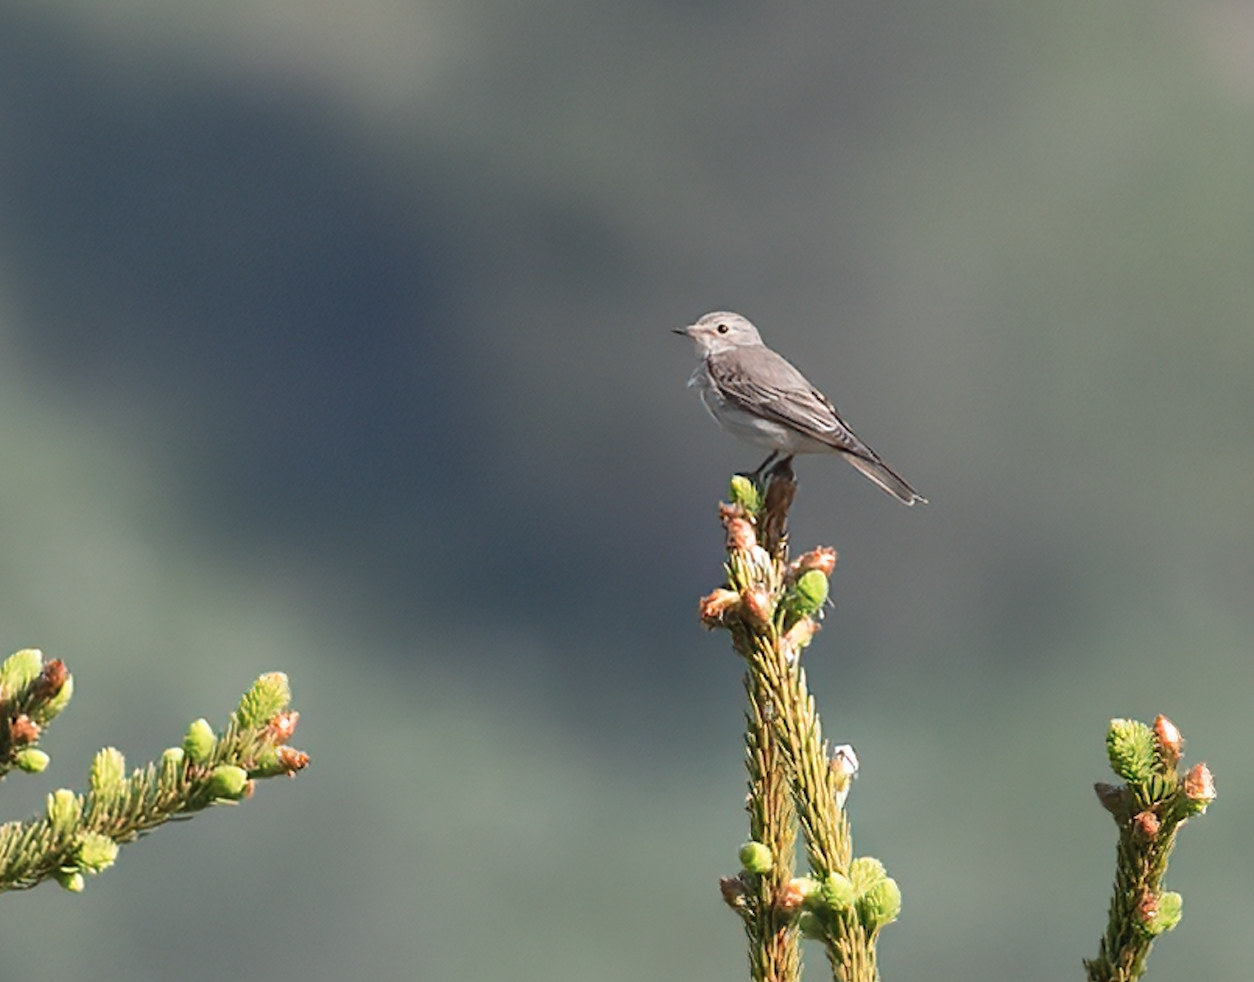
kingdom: Animalia
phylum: Chordata
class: Aves
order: Passeriformes
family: Muscicapidae
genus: Muscicapa
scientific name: Muscicapa striata
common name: Spotted flycatcher
